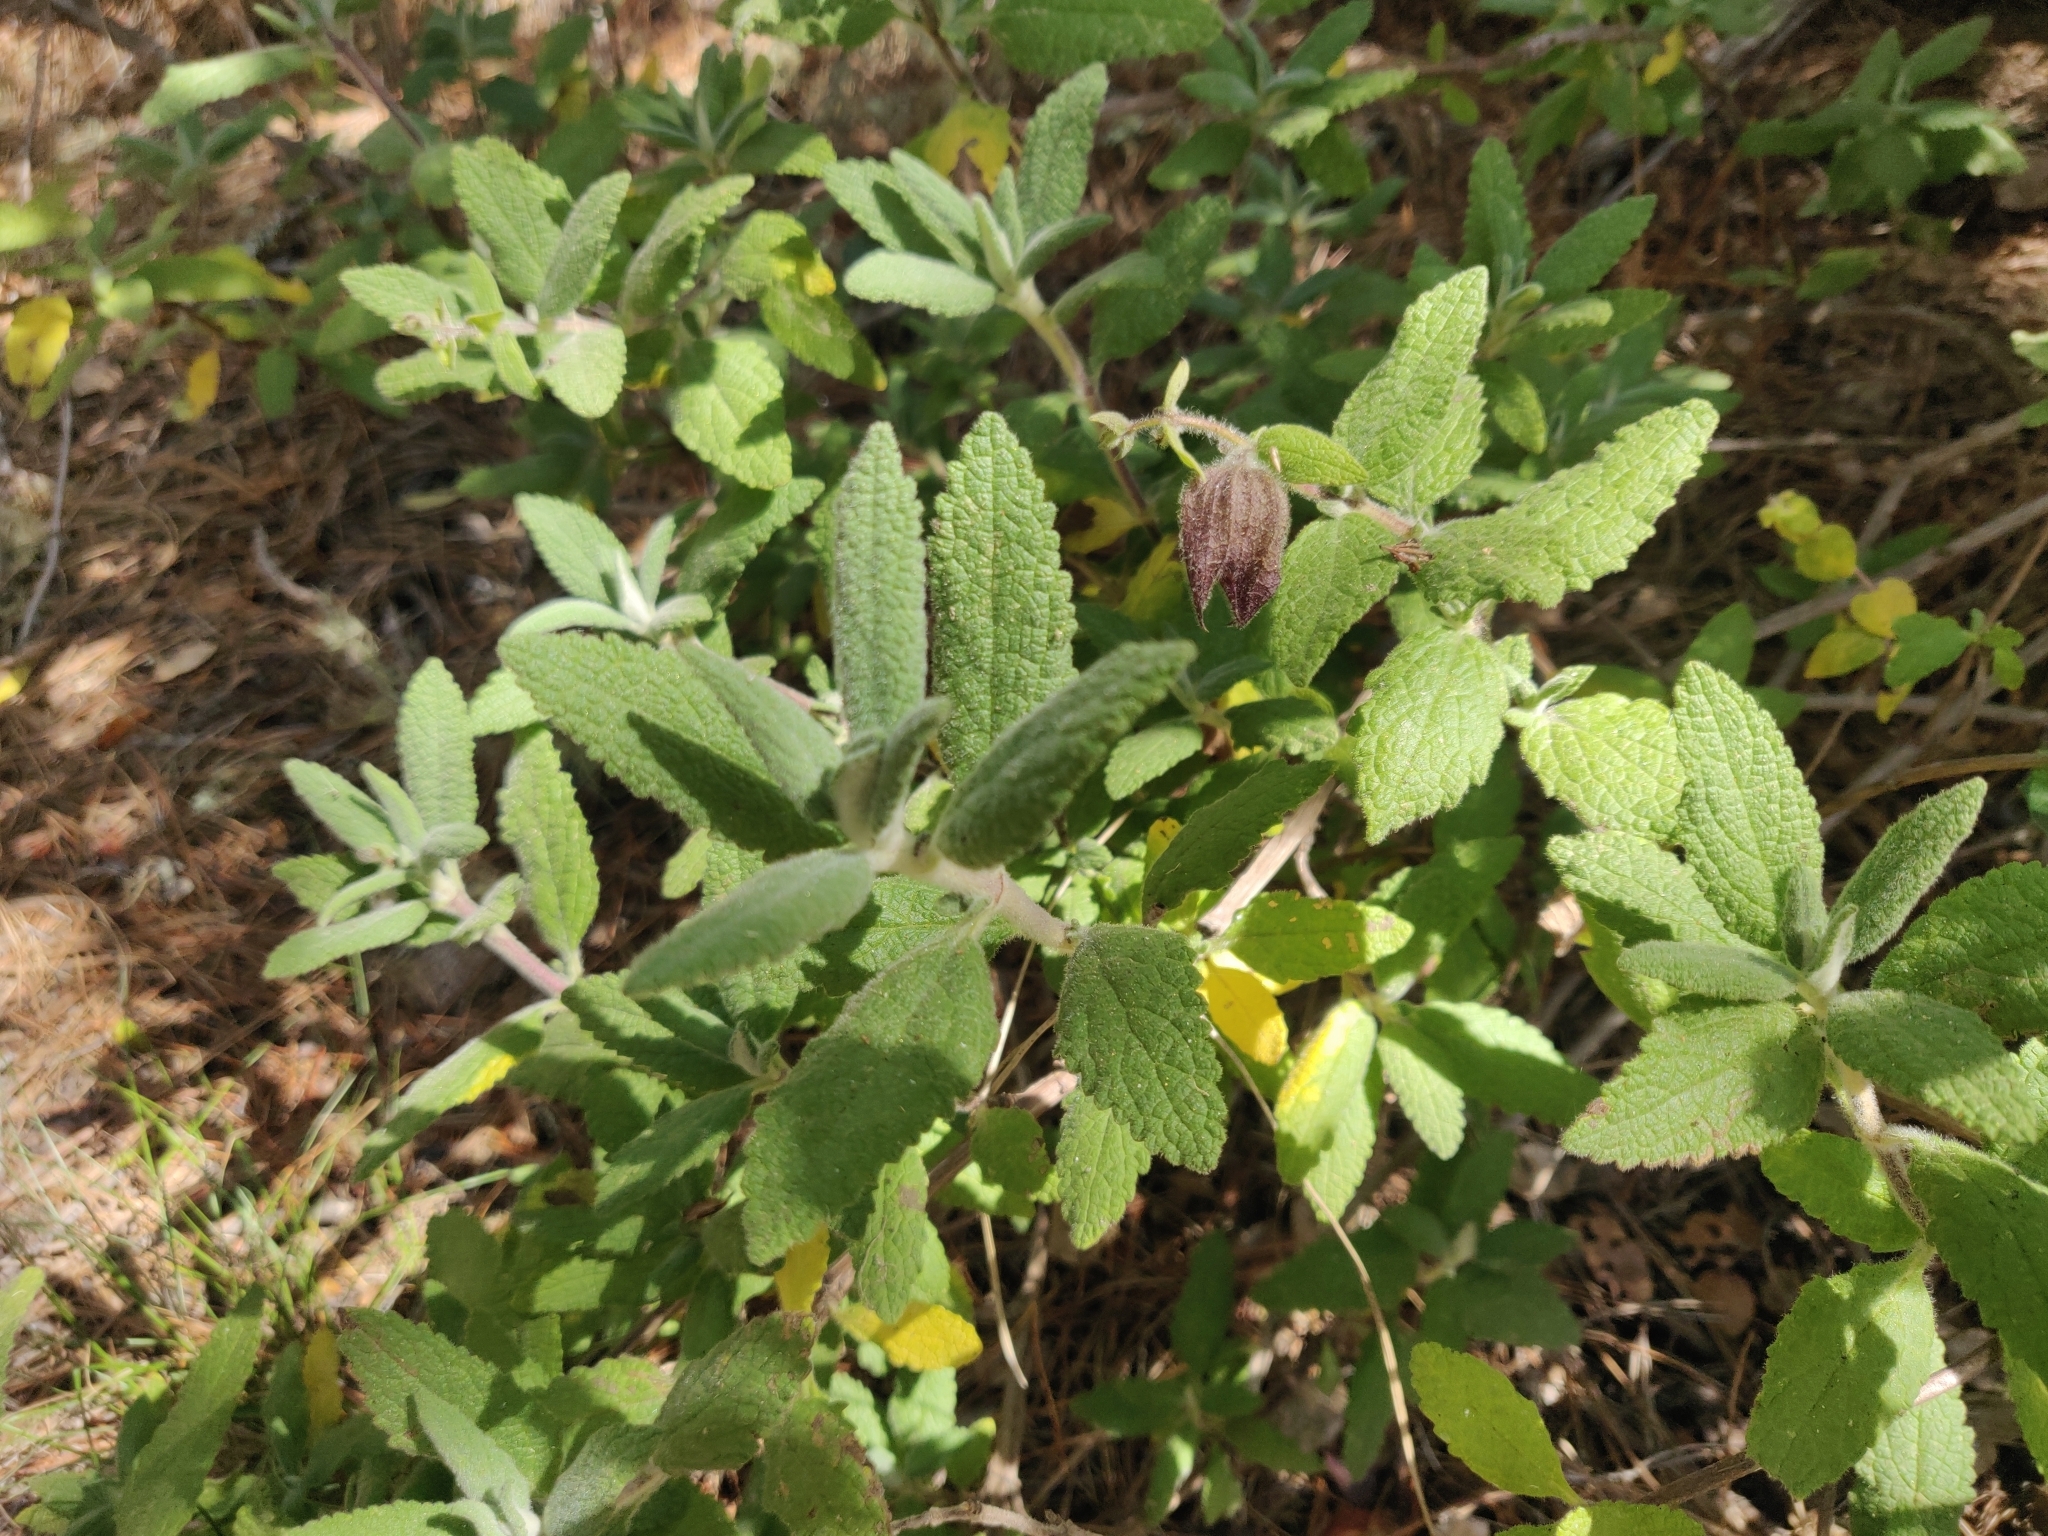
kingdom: Plantae
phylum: Tracheophyta
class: Magnoliopsida
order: Lamiales
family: Lamiaceae
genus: Lepechinia
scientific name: Lepechinia calycina
